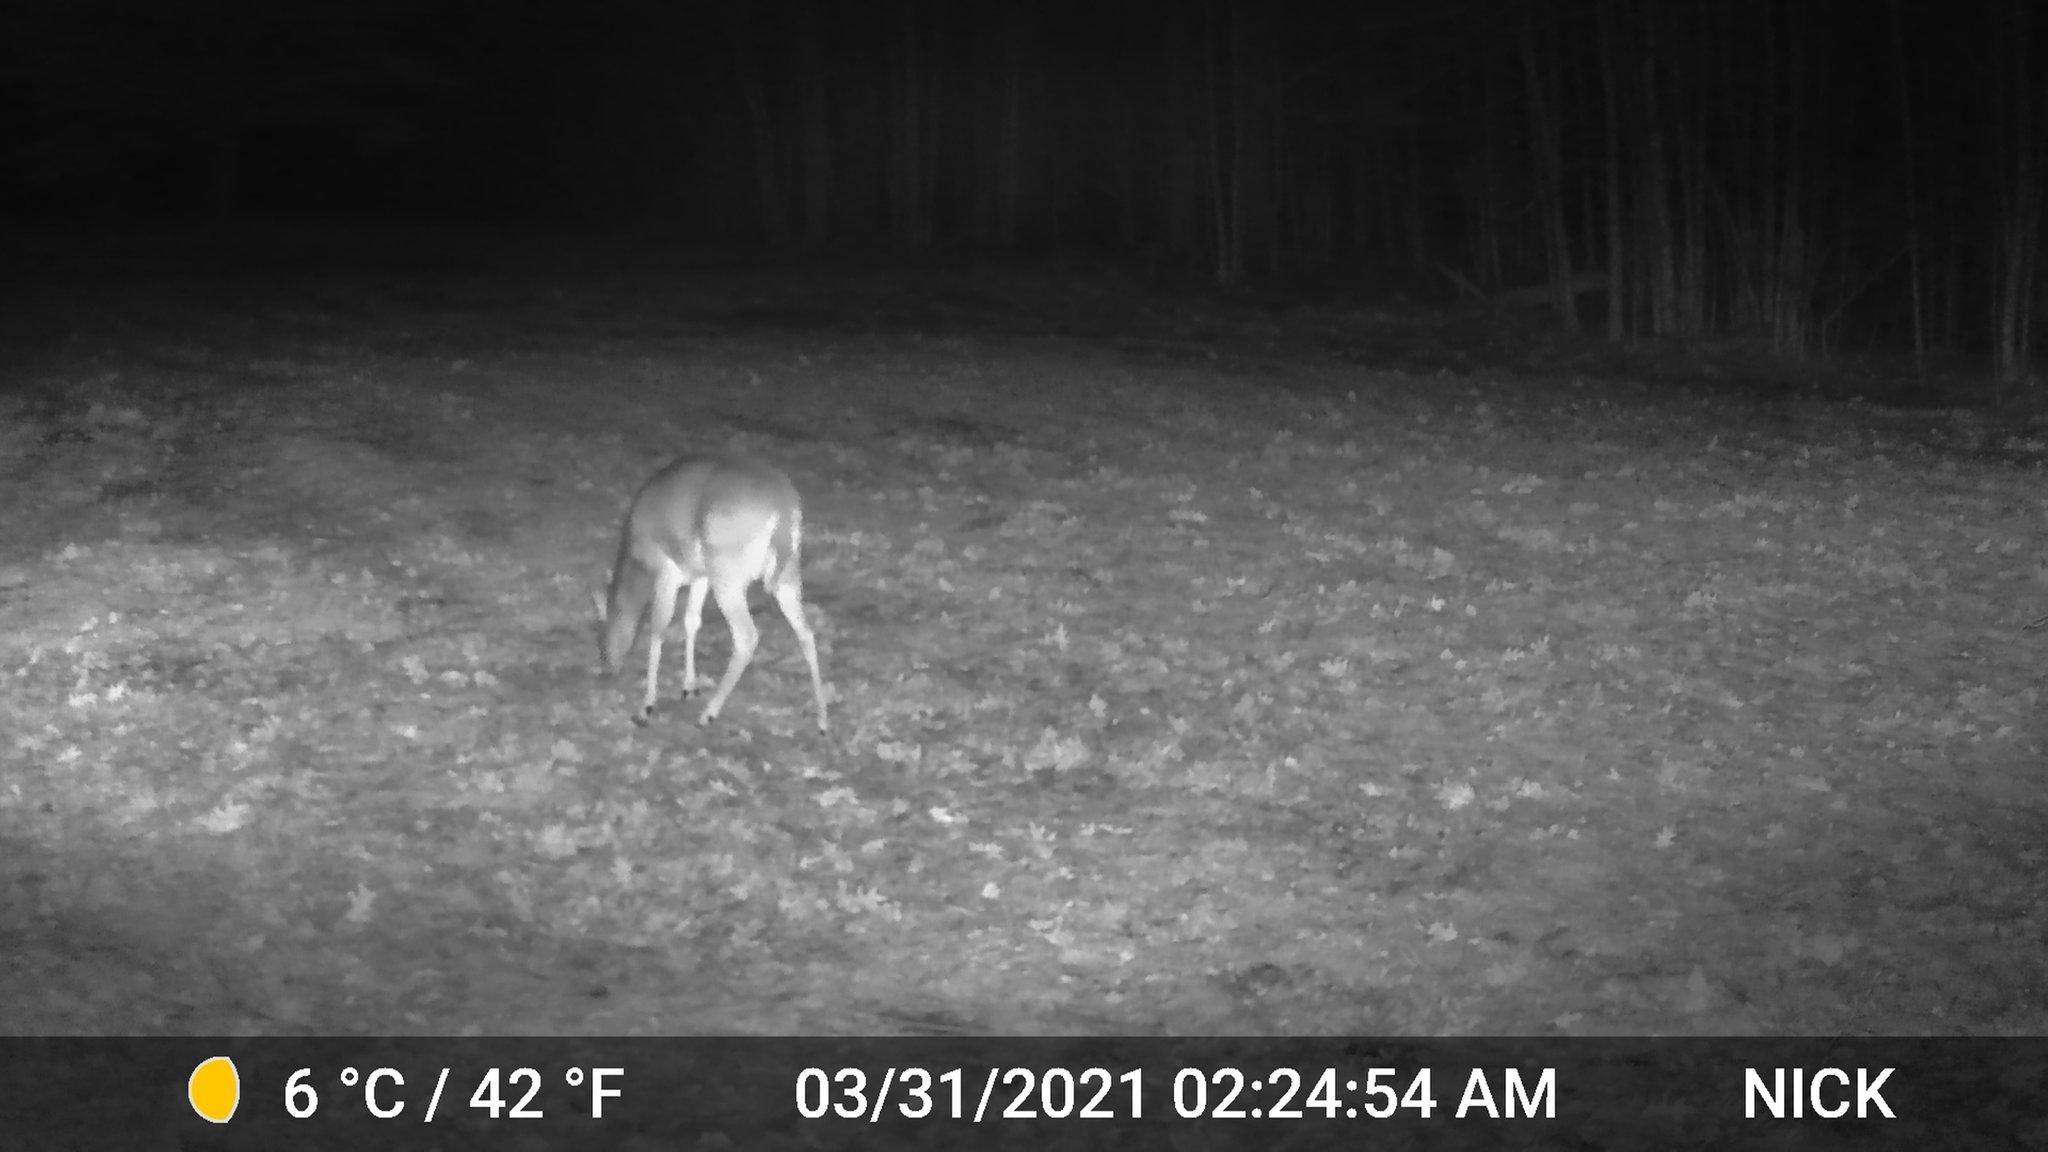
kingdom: Animalia
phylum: Chordata
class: Mammalia
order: Artiodactyla
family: Cervidae
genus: Odocoileus
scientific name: Odocoileus virginianus
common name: White-tailed deer
